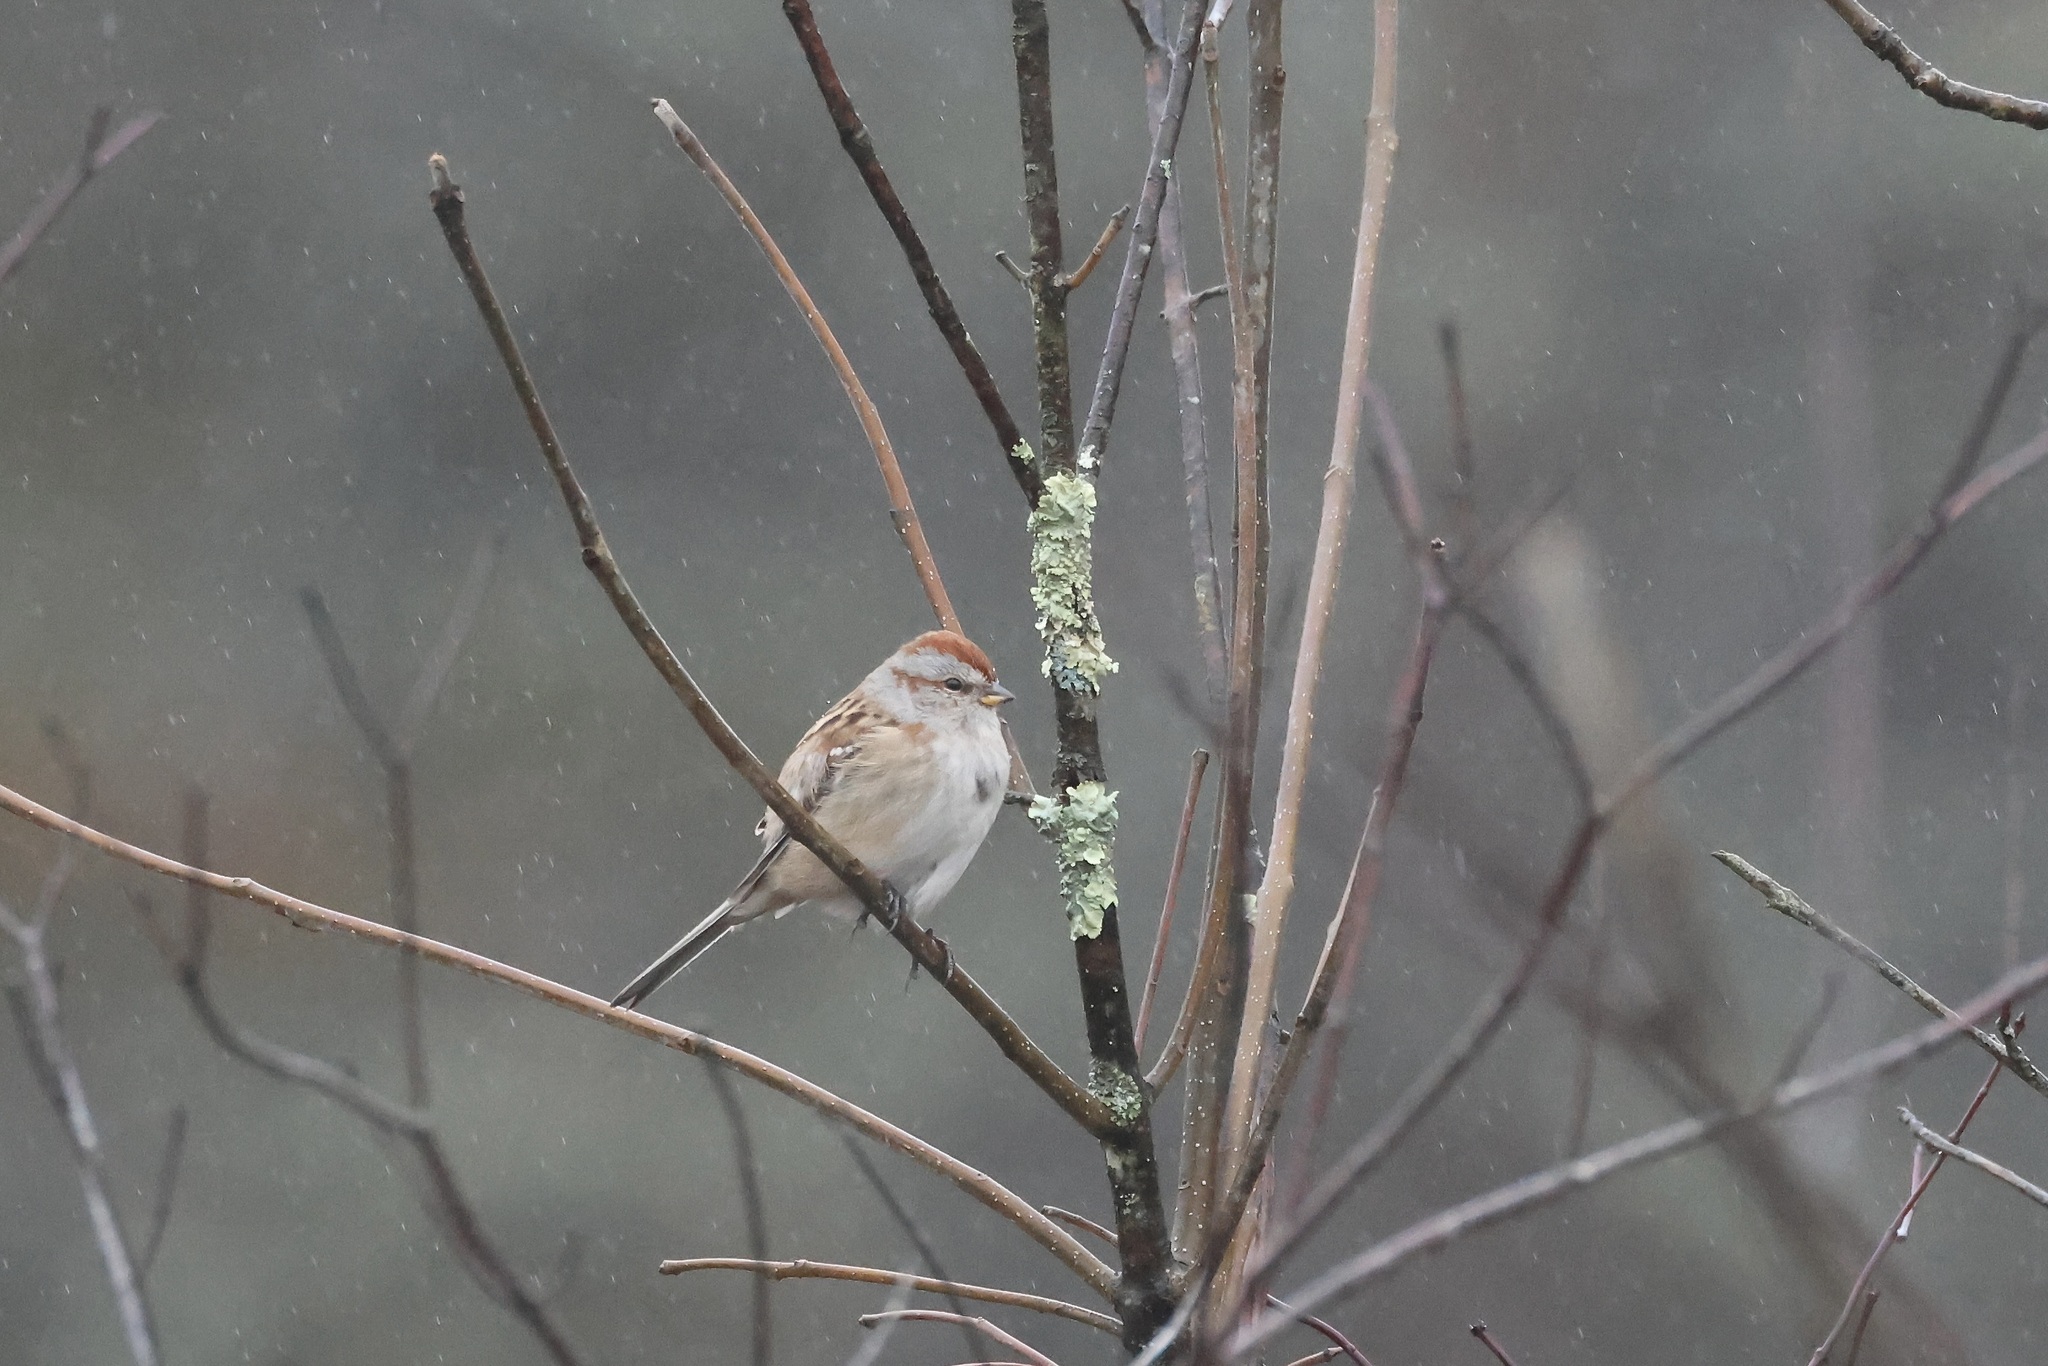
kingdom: Animalia
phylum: Chordata
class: Aves
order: Passeriformes
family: Passerellidae
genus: Spizelloides
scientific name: Spizelloides arborea
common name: American tree sparrow
